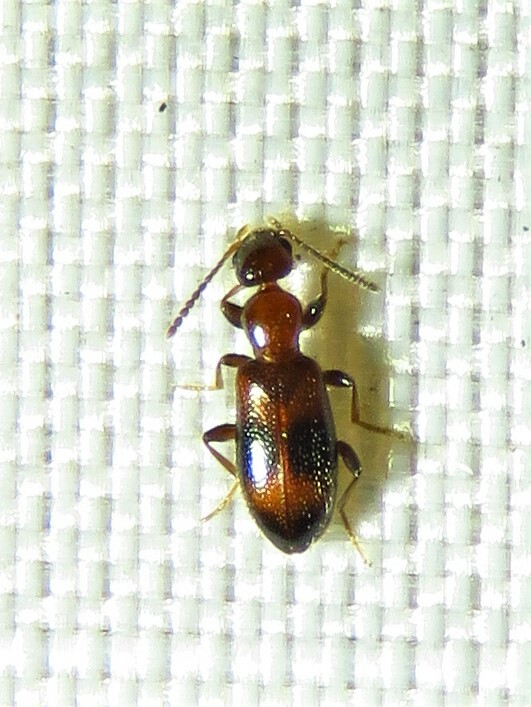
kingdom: Animalia
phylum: Arthropoda
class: Insecta
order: Coleoptera
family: Anthicidae
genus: Vacusus
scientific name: Vacusus vicinus
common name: Antlike flower beetle
